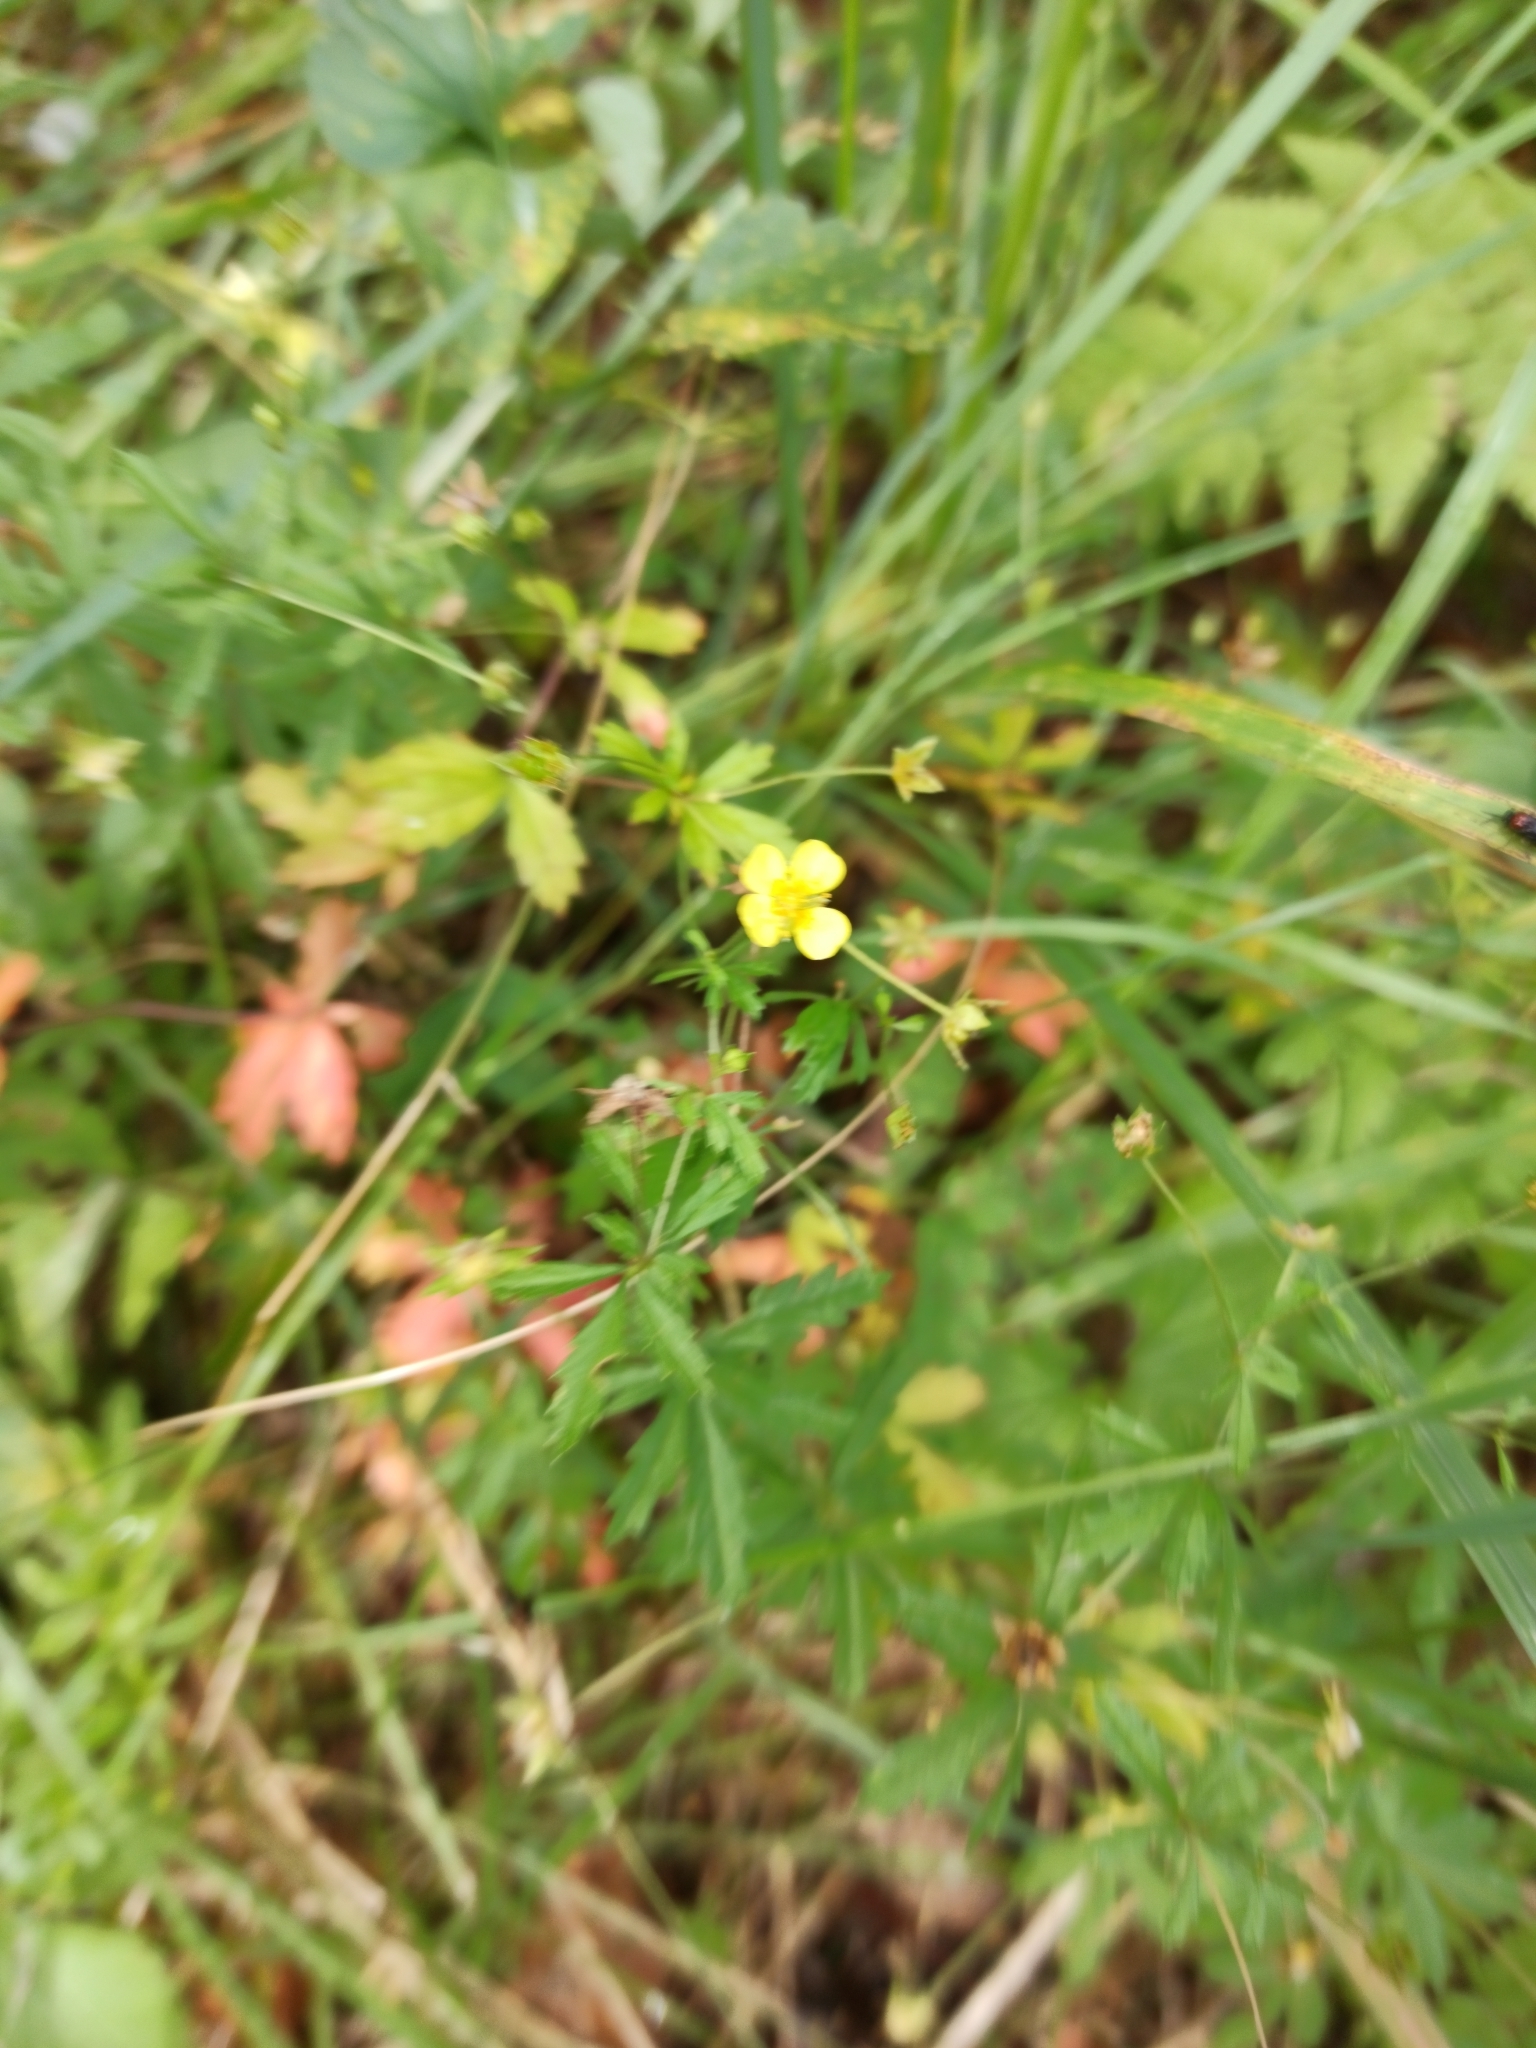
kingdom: Plantae
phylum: Tracheophyta
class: Magnoliopsida
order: Rosales
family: Rosaceae
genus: Potentilla
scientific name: Potentilla erecta
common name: Tormentil
